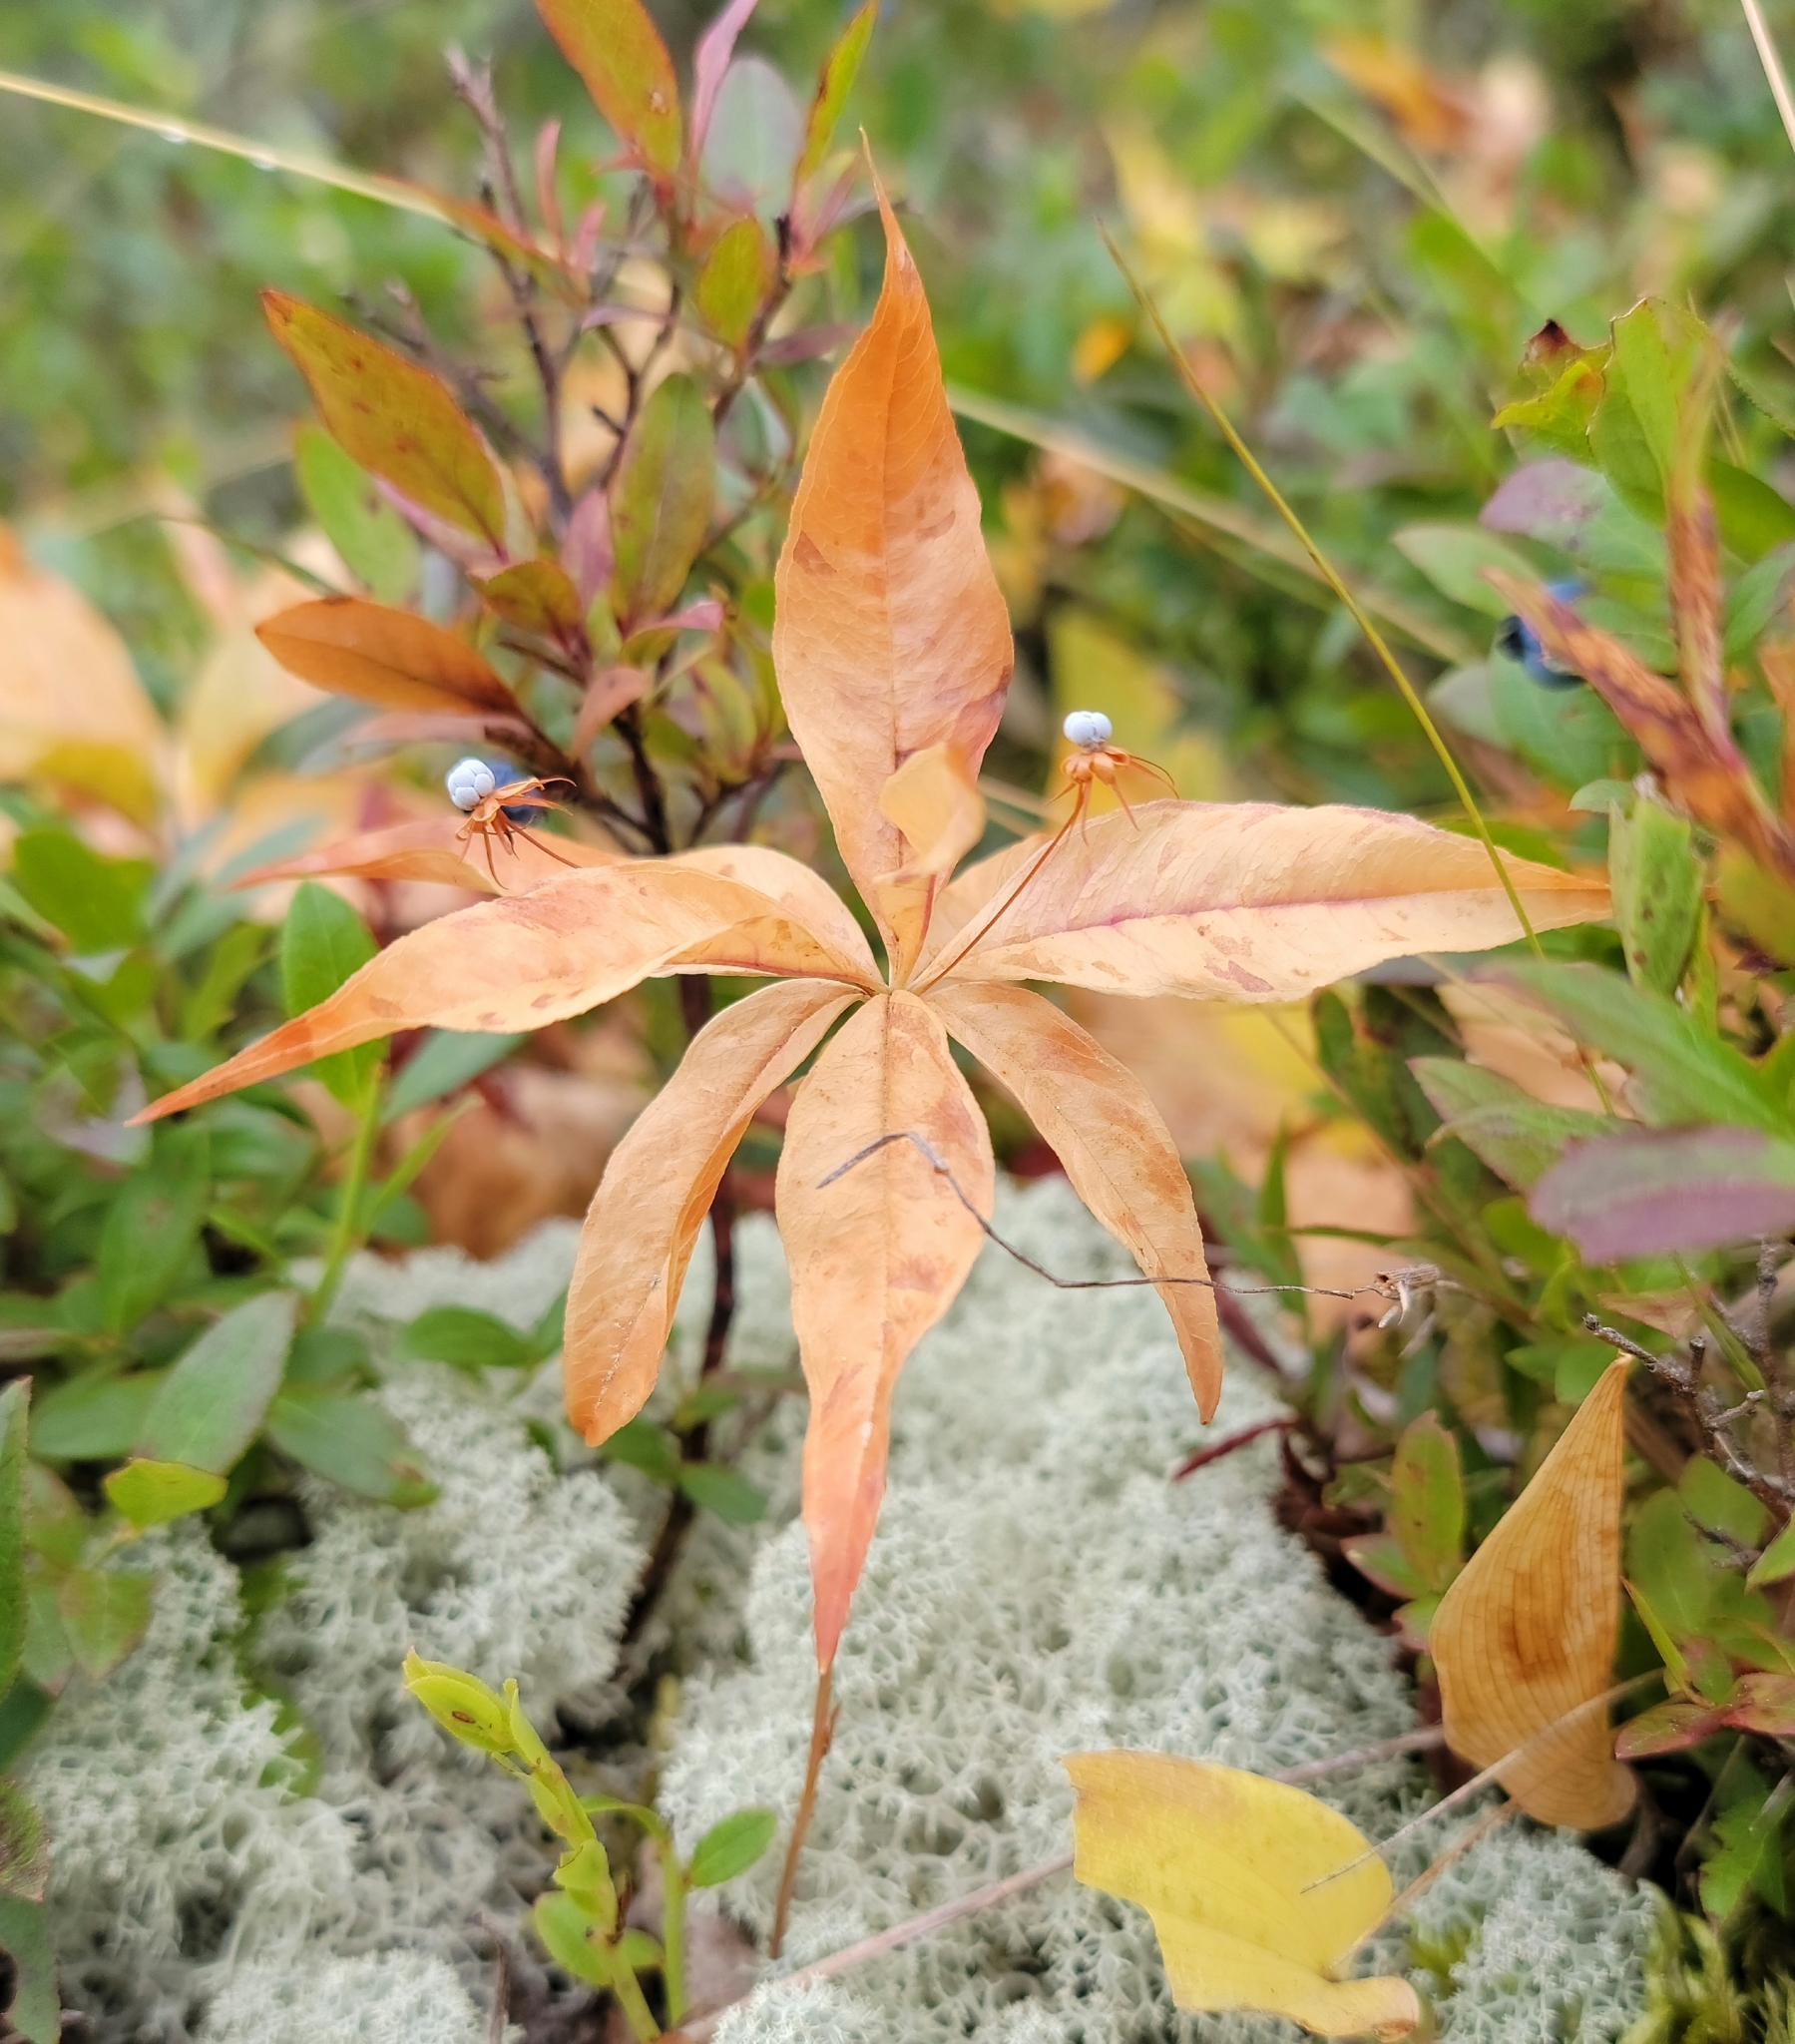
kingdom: Plantae
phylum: Tracheophyta
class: Magnoliopsida
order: Ericales
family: Primulaceae
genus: Lysimachia
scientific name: Lysimachia borealis
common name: American starflower
